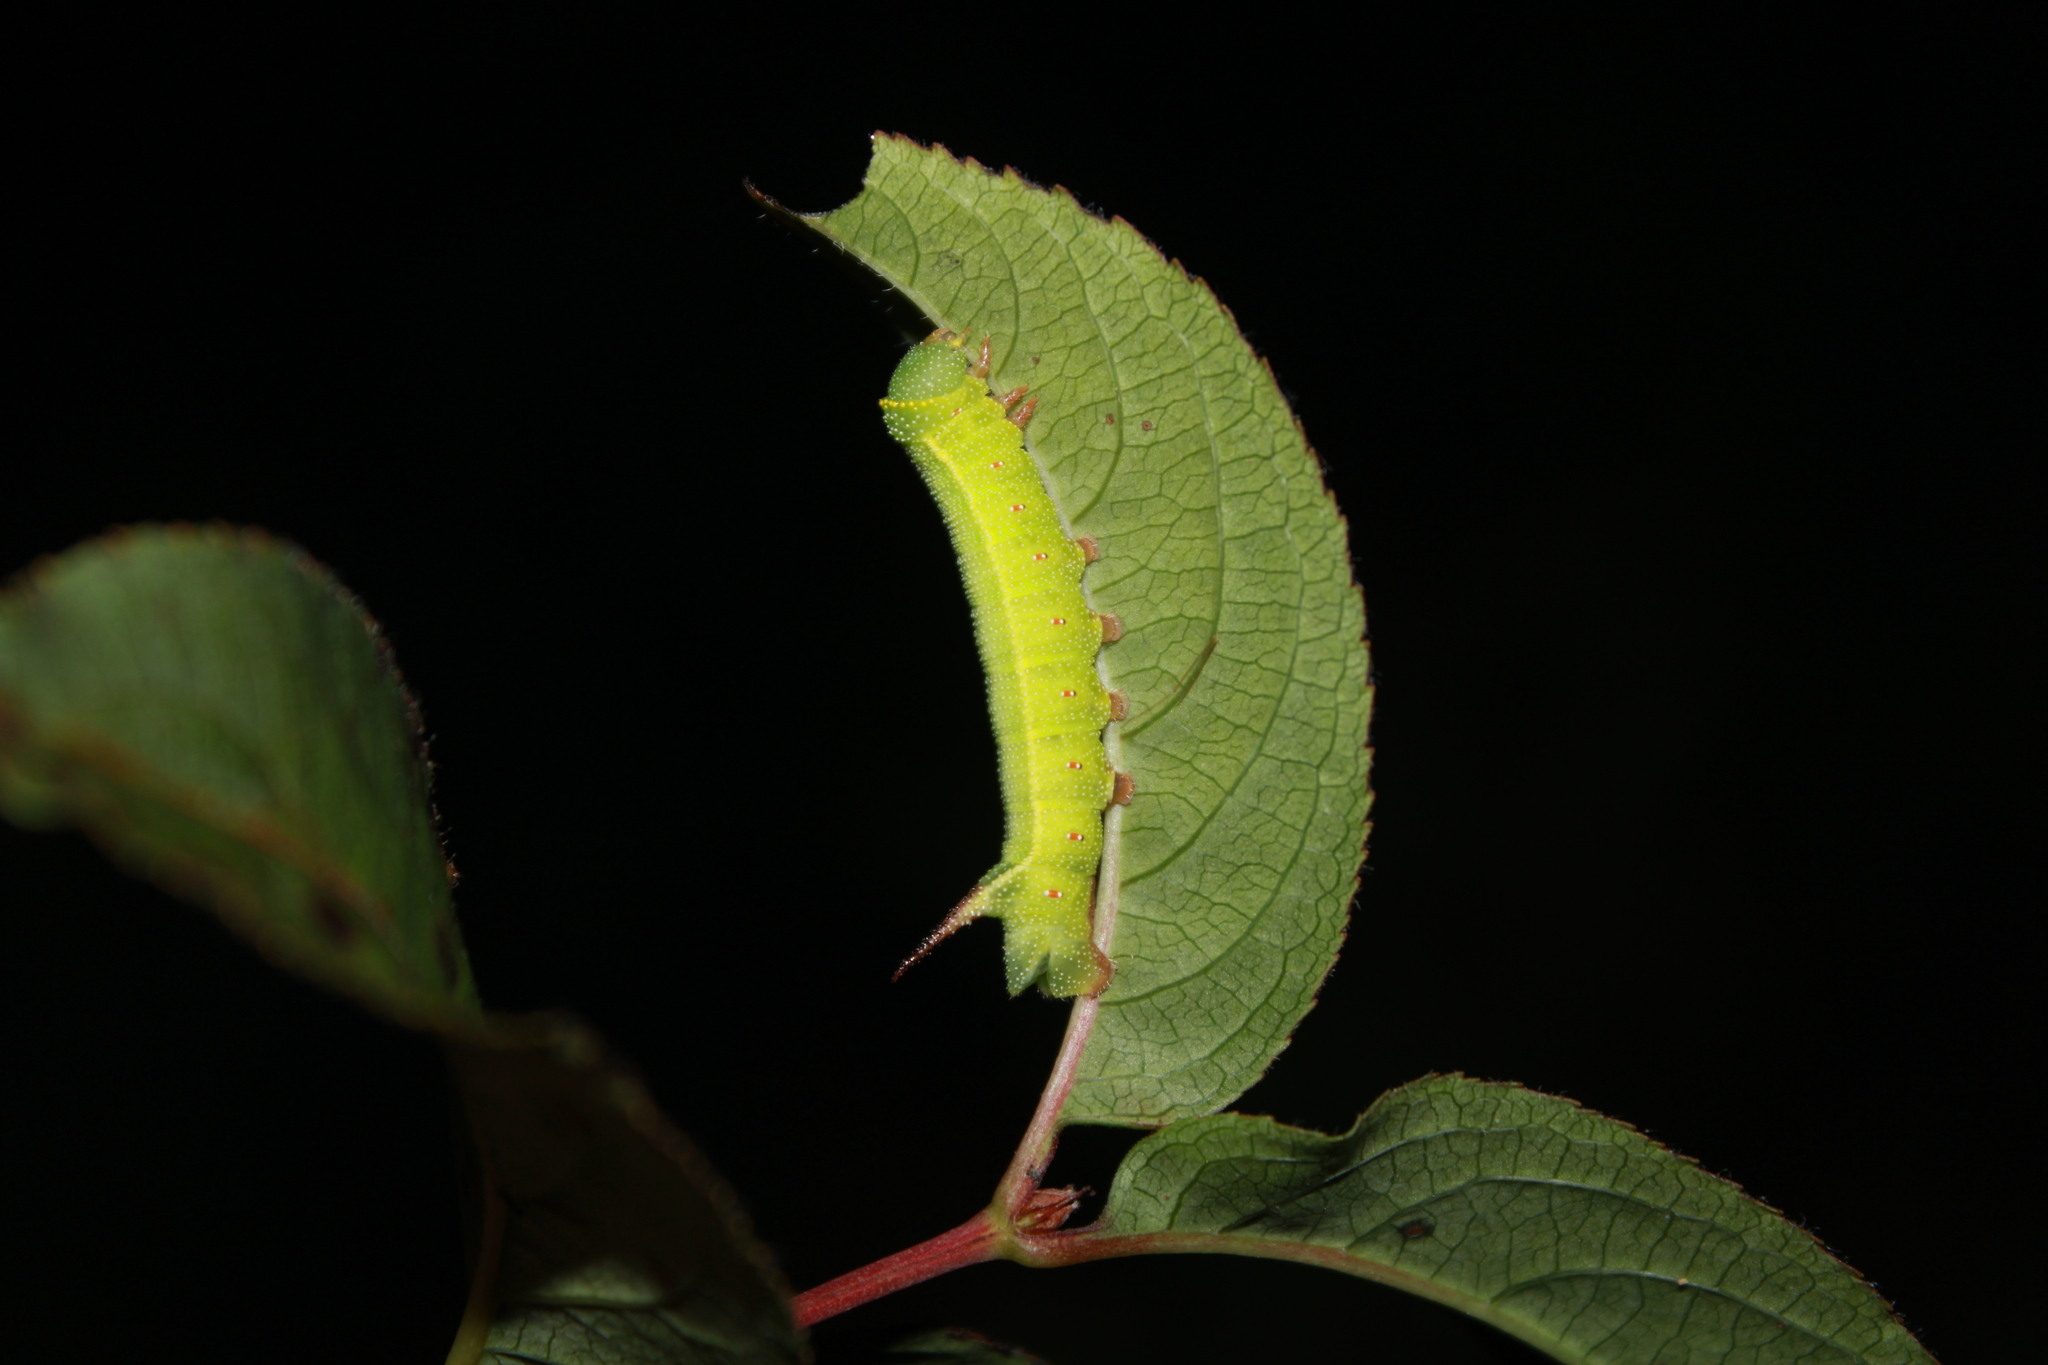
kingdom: Animalia
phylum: Arthropoda
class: Insecta
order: Lepidoptera
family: Sphingidae
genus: Hemaris
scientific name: Hemaris diffinis
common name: Bumblebee moth
